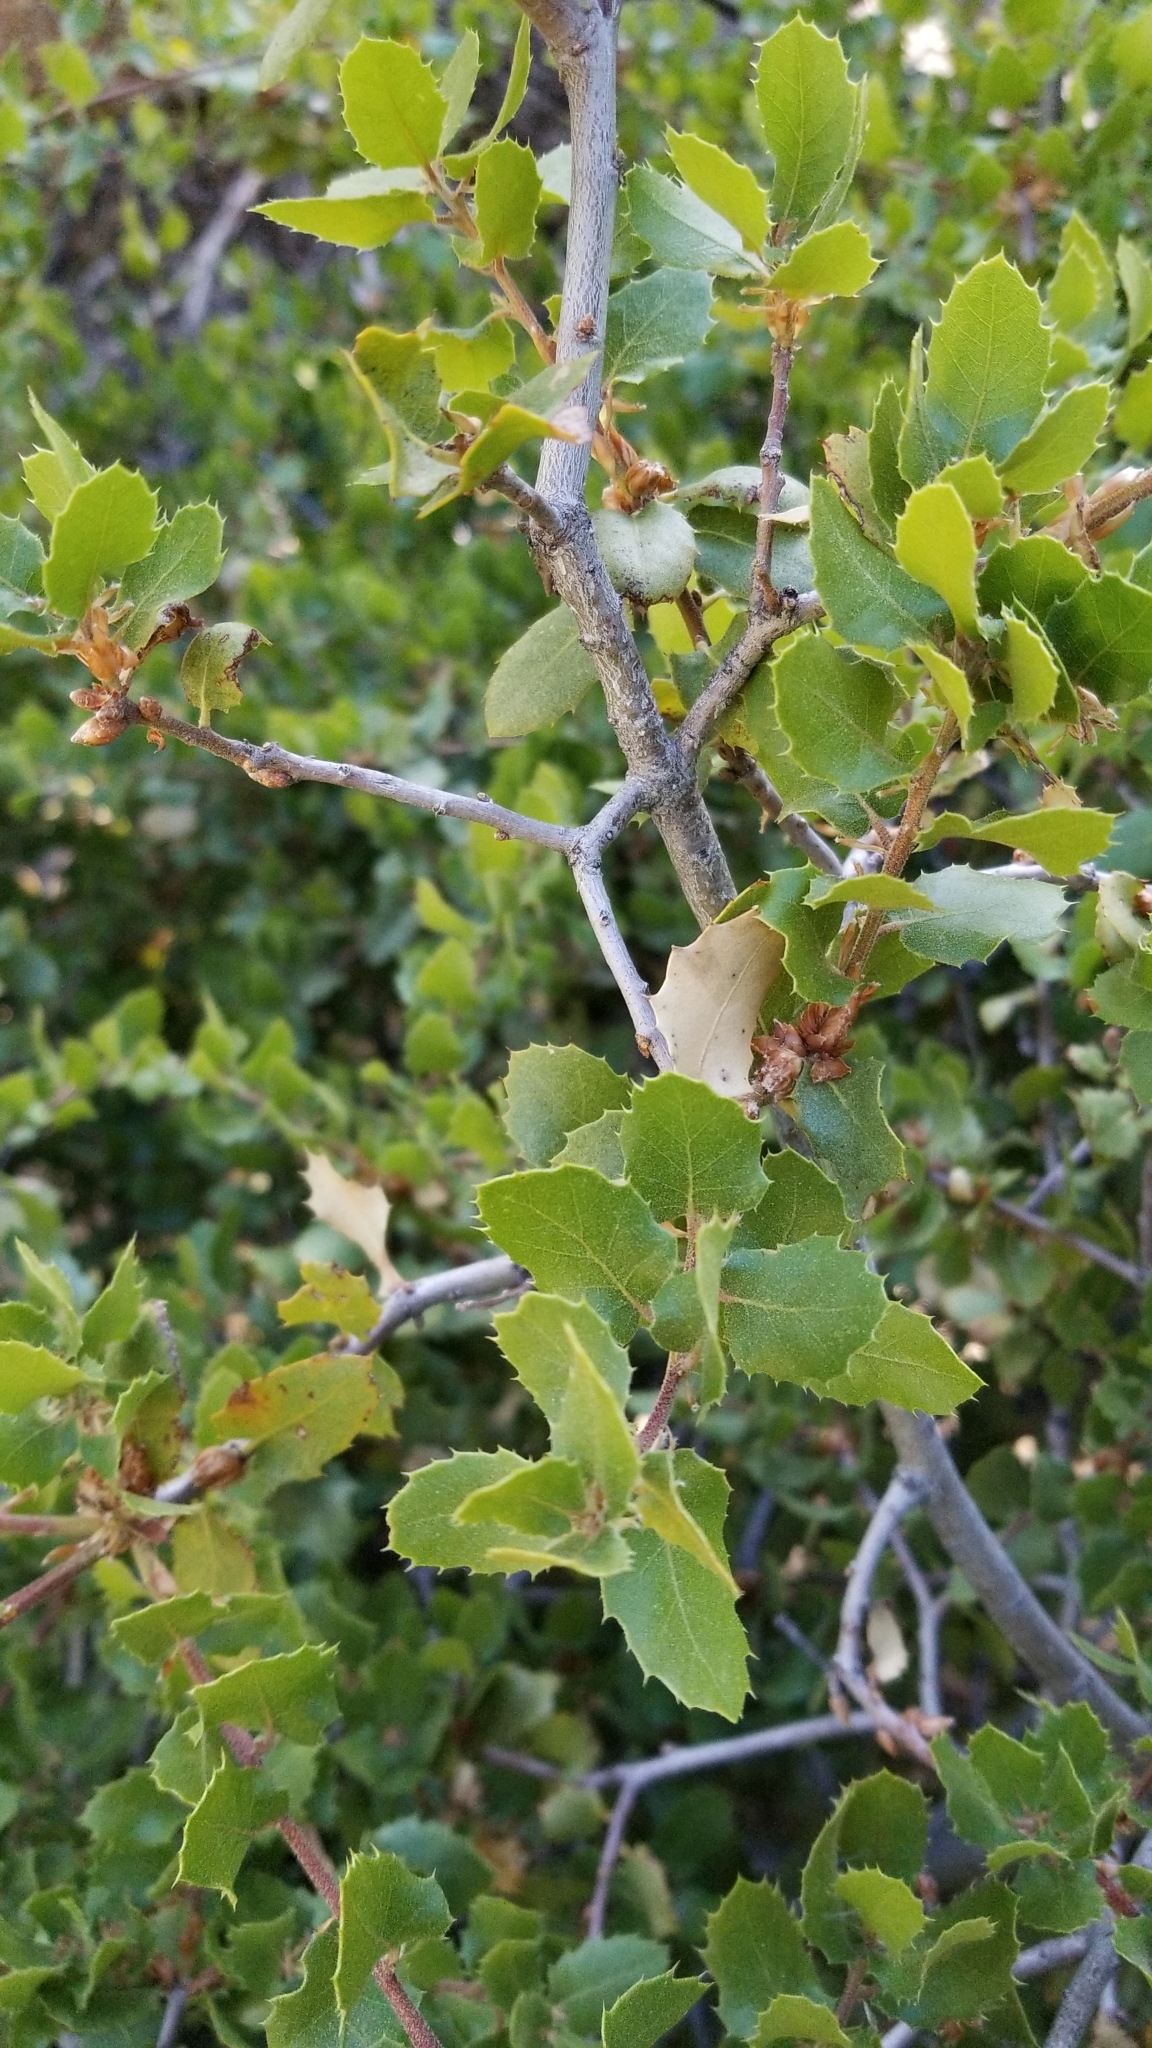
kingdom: Plantae
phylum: Tracheophyta
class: Magnoliopsida
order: Fagales
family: Fagaceae
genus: Quercus
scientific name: Quercus wislizeni
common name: Interior live oak
